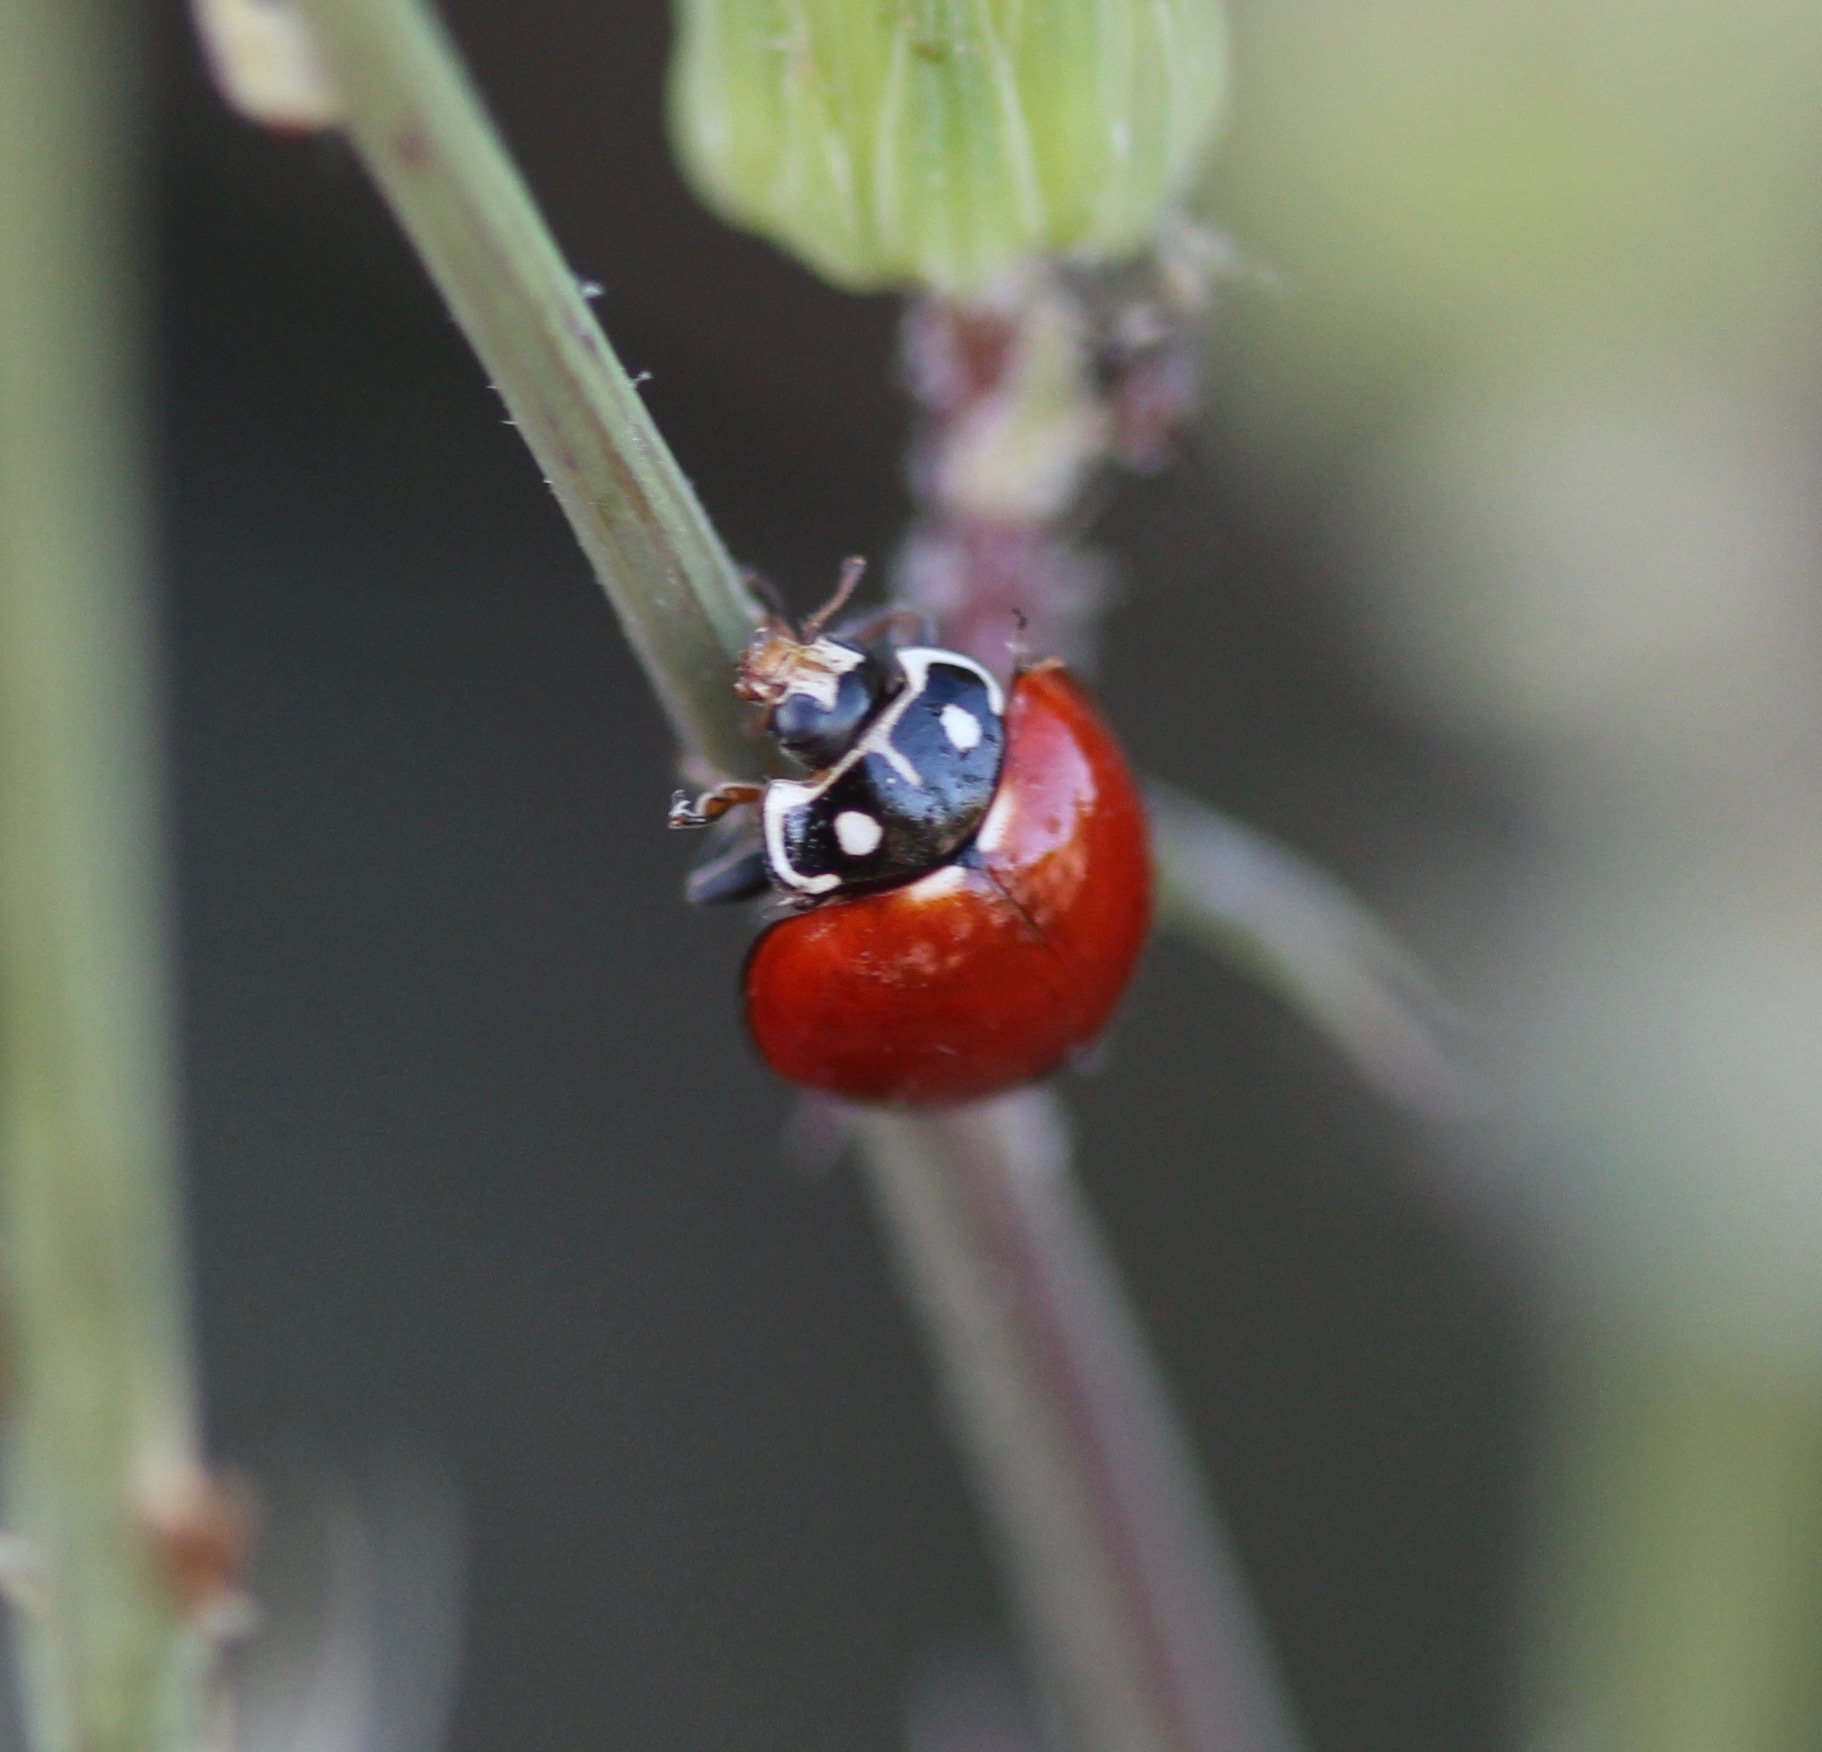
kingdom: Animalia
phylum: Arthropoda
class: Insecta
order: Coleoptera
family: Coccinellidae
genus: Cycloneda
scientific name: Cycloneda sanguinea
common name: Ladybird beetle
